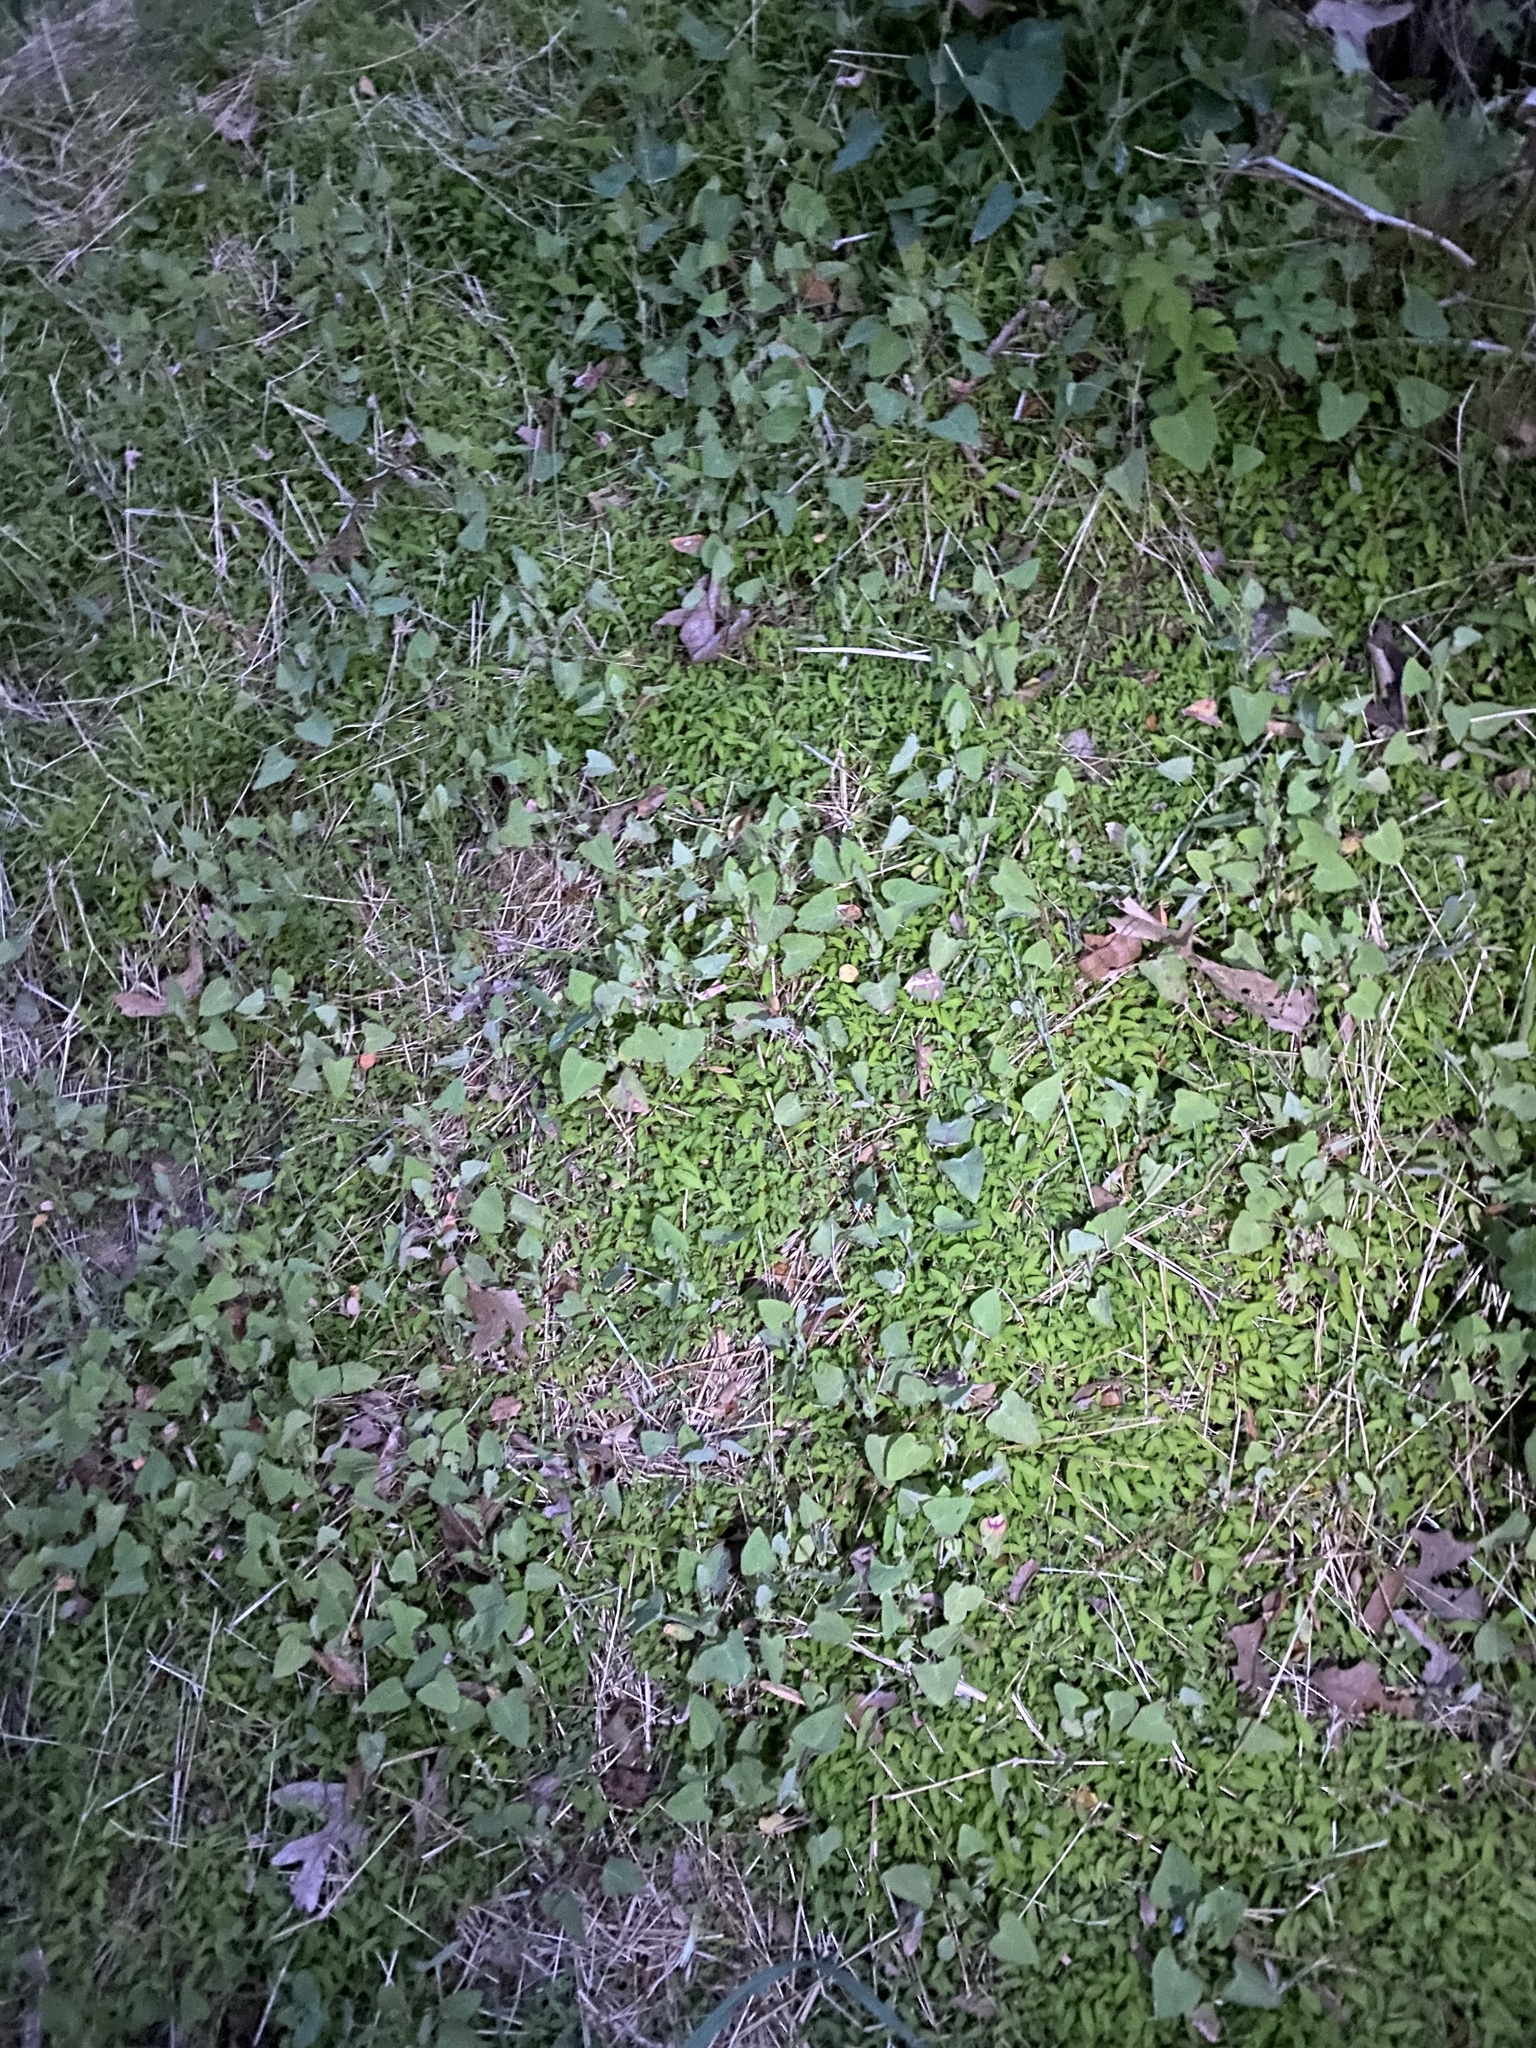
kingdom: Plantae
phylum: Tracheophyta
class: Magnoliopsida
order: Caryophyllales
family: Polygonaceae
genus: Persicaria
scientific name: Persicaria perfoliata
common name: Asiatic tearthumb
